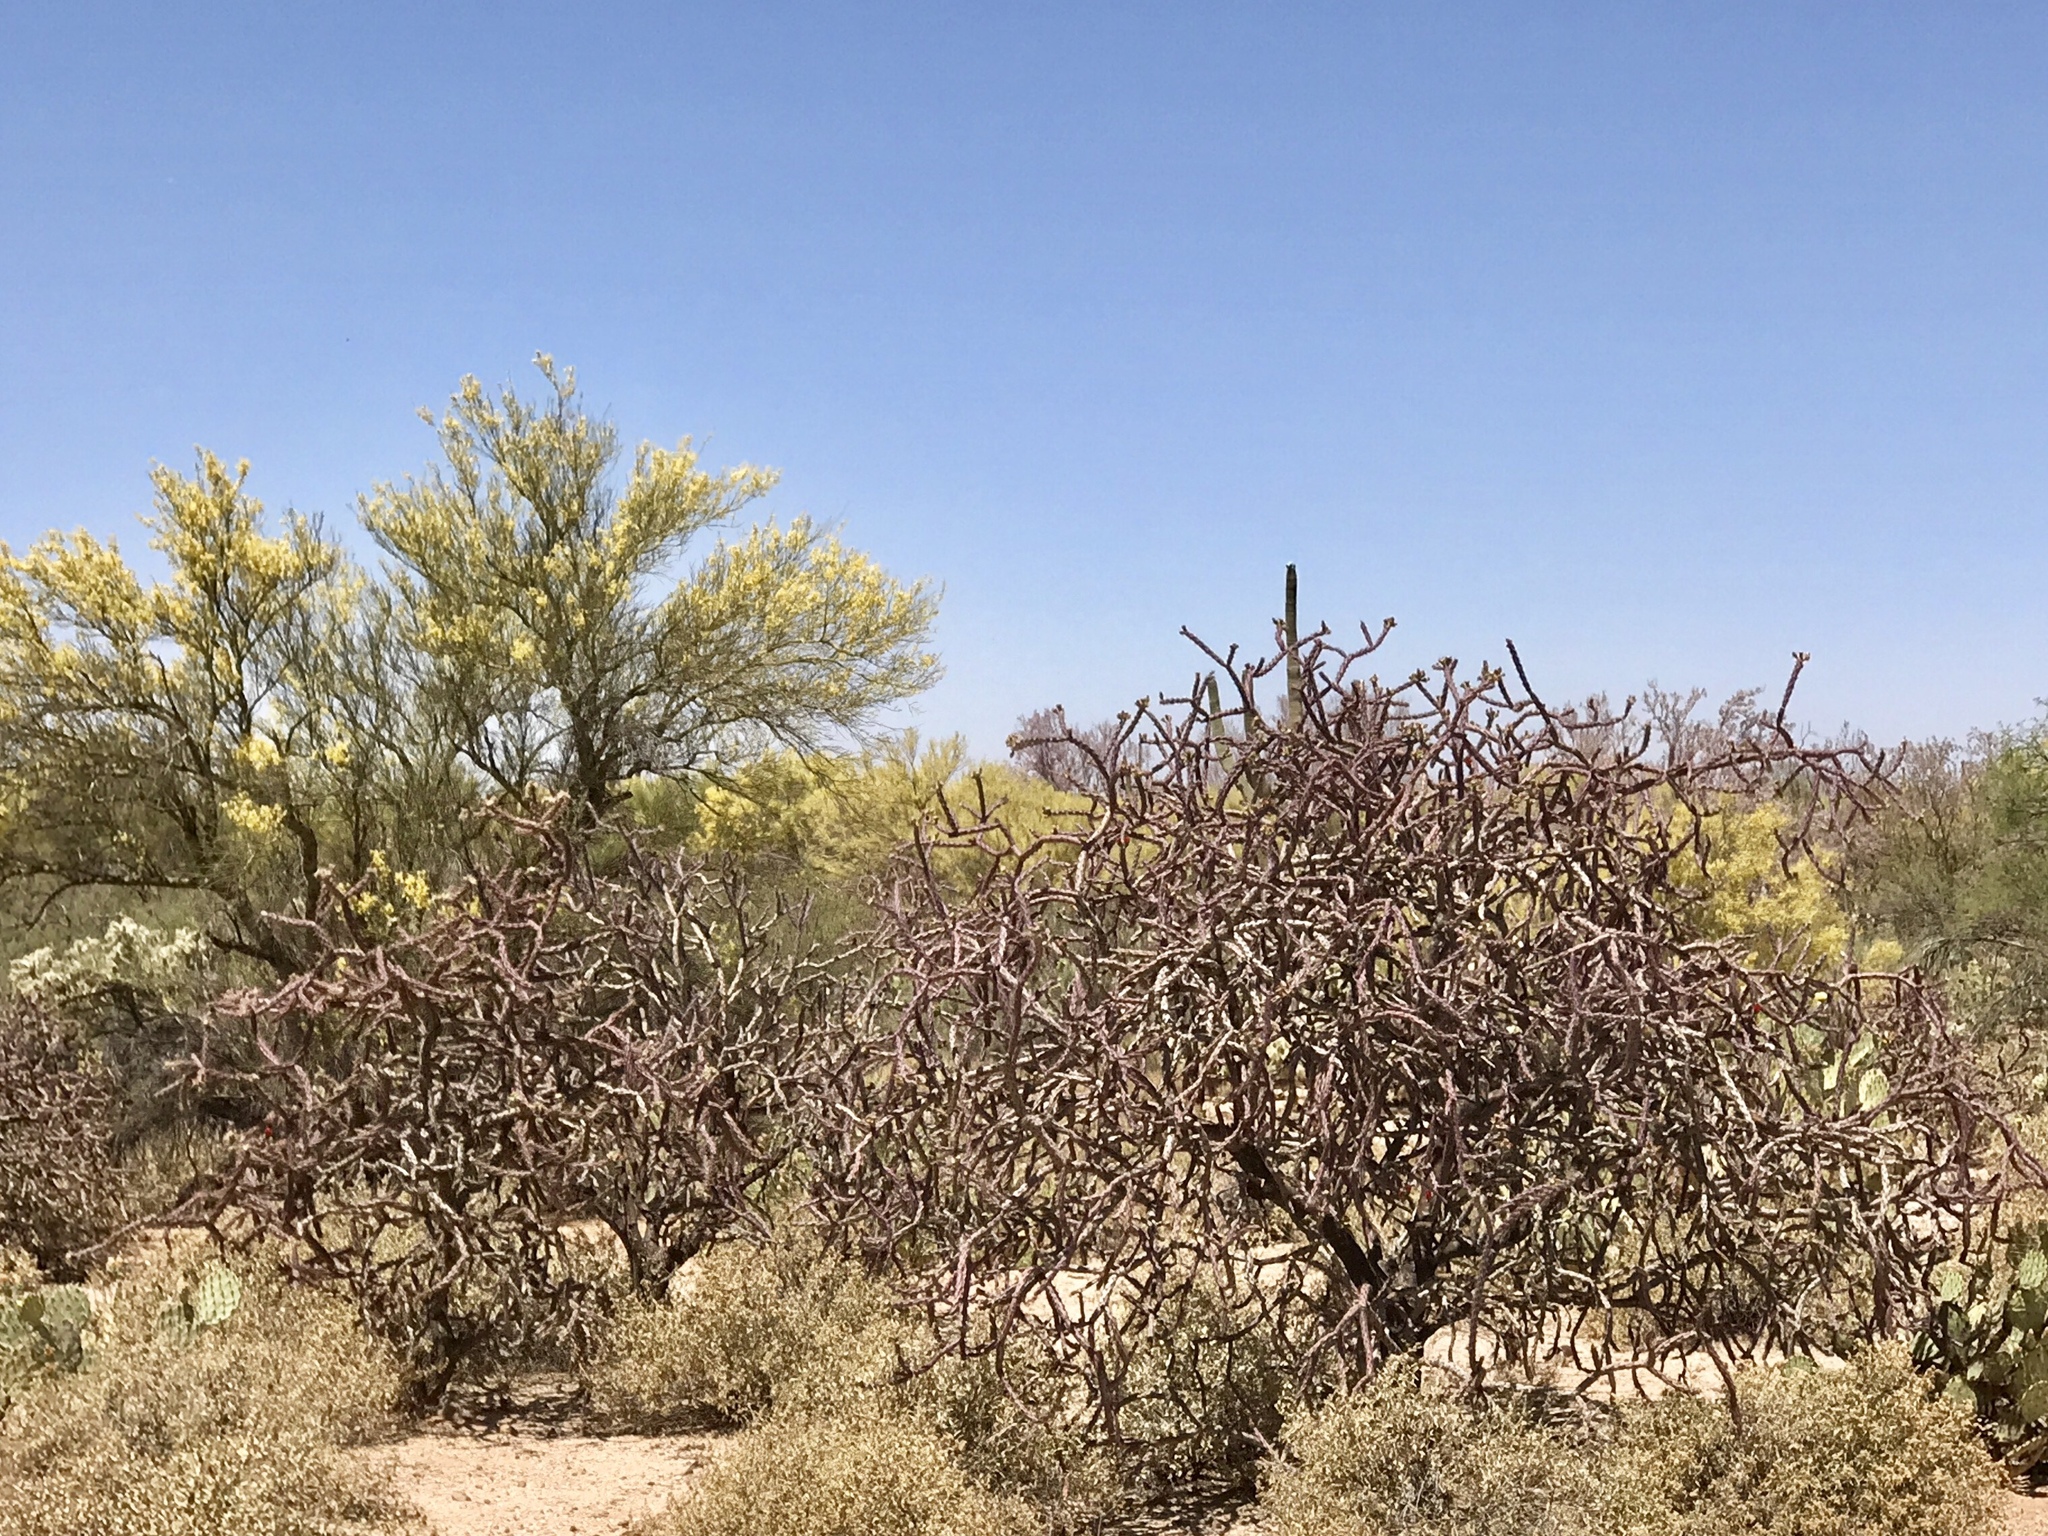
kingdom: Plantae
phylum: Tracheophyta
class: Magnoliopsida
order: Caryophyllales
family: Cactaceae
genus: Cylindropuntia
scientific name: Cylindropuntia thurberi
